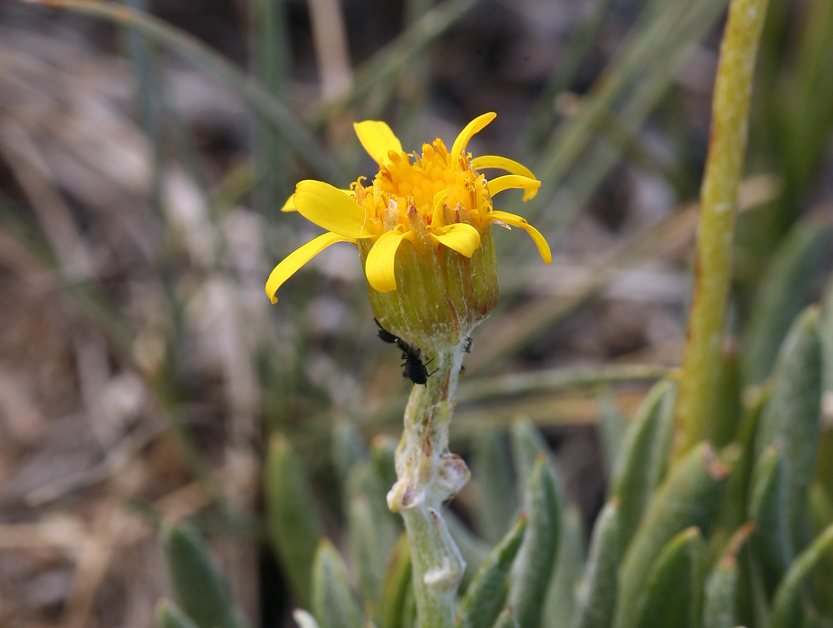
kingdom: Plantae
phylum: Tracheophyta
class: Magnoliopsida
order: Asterales
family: Asteraceae
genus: Packera
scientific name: Packera werneriifolia
